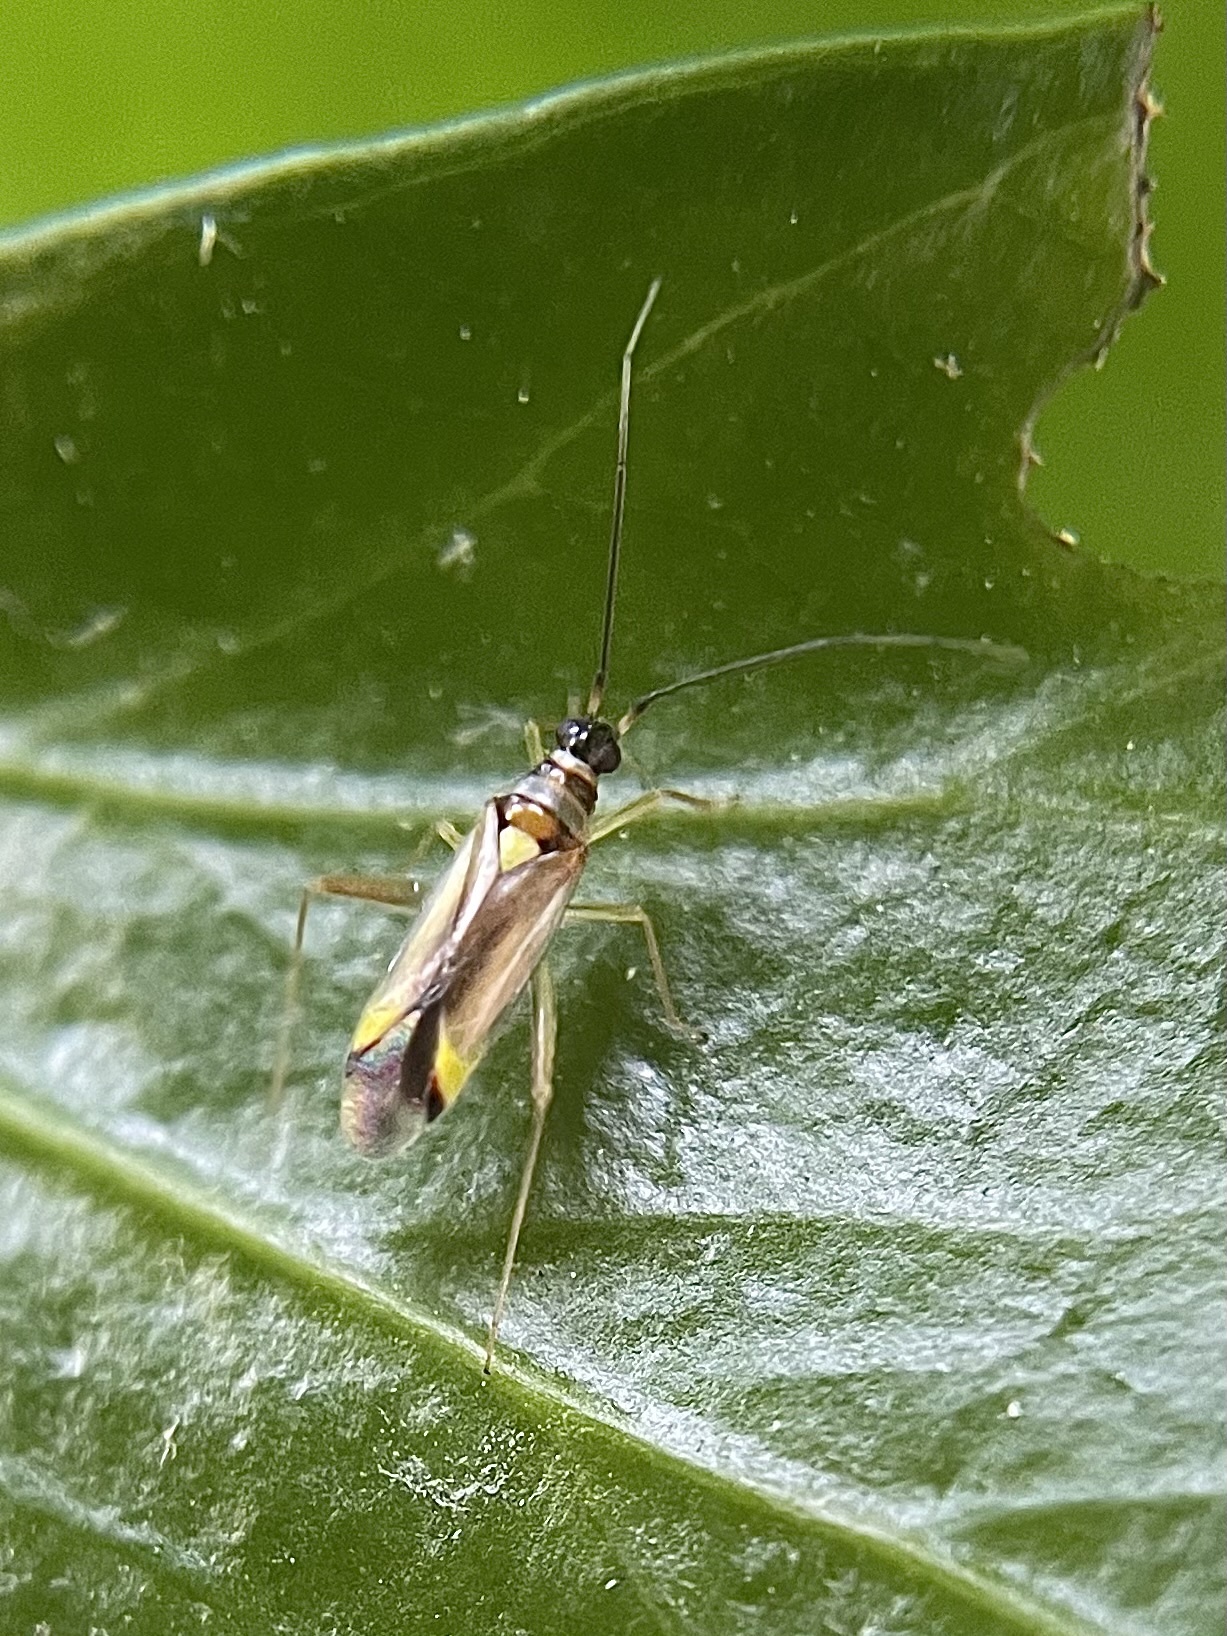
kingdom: Animalia
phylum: Arthropoda
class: Insecta
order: Hemiptera
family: Miridae
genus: Campyloneura
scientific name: Campyloneura virgula
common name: Predatory bug
